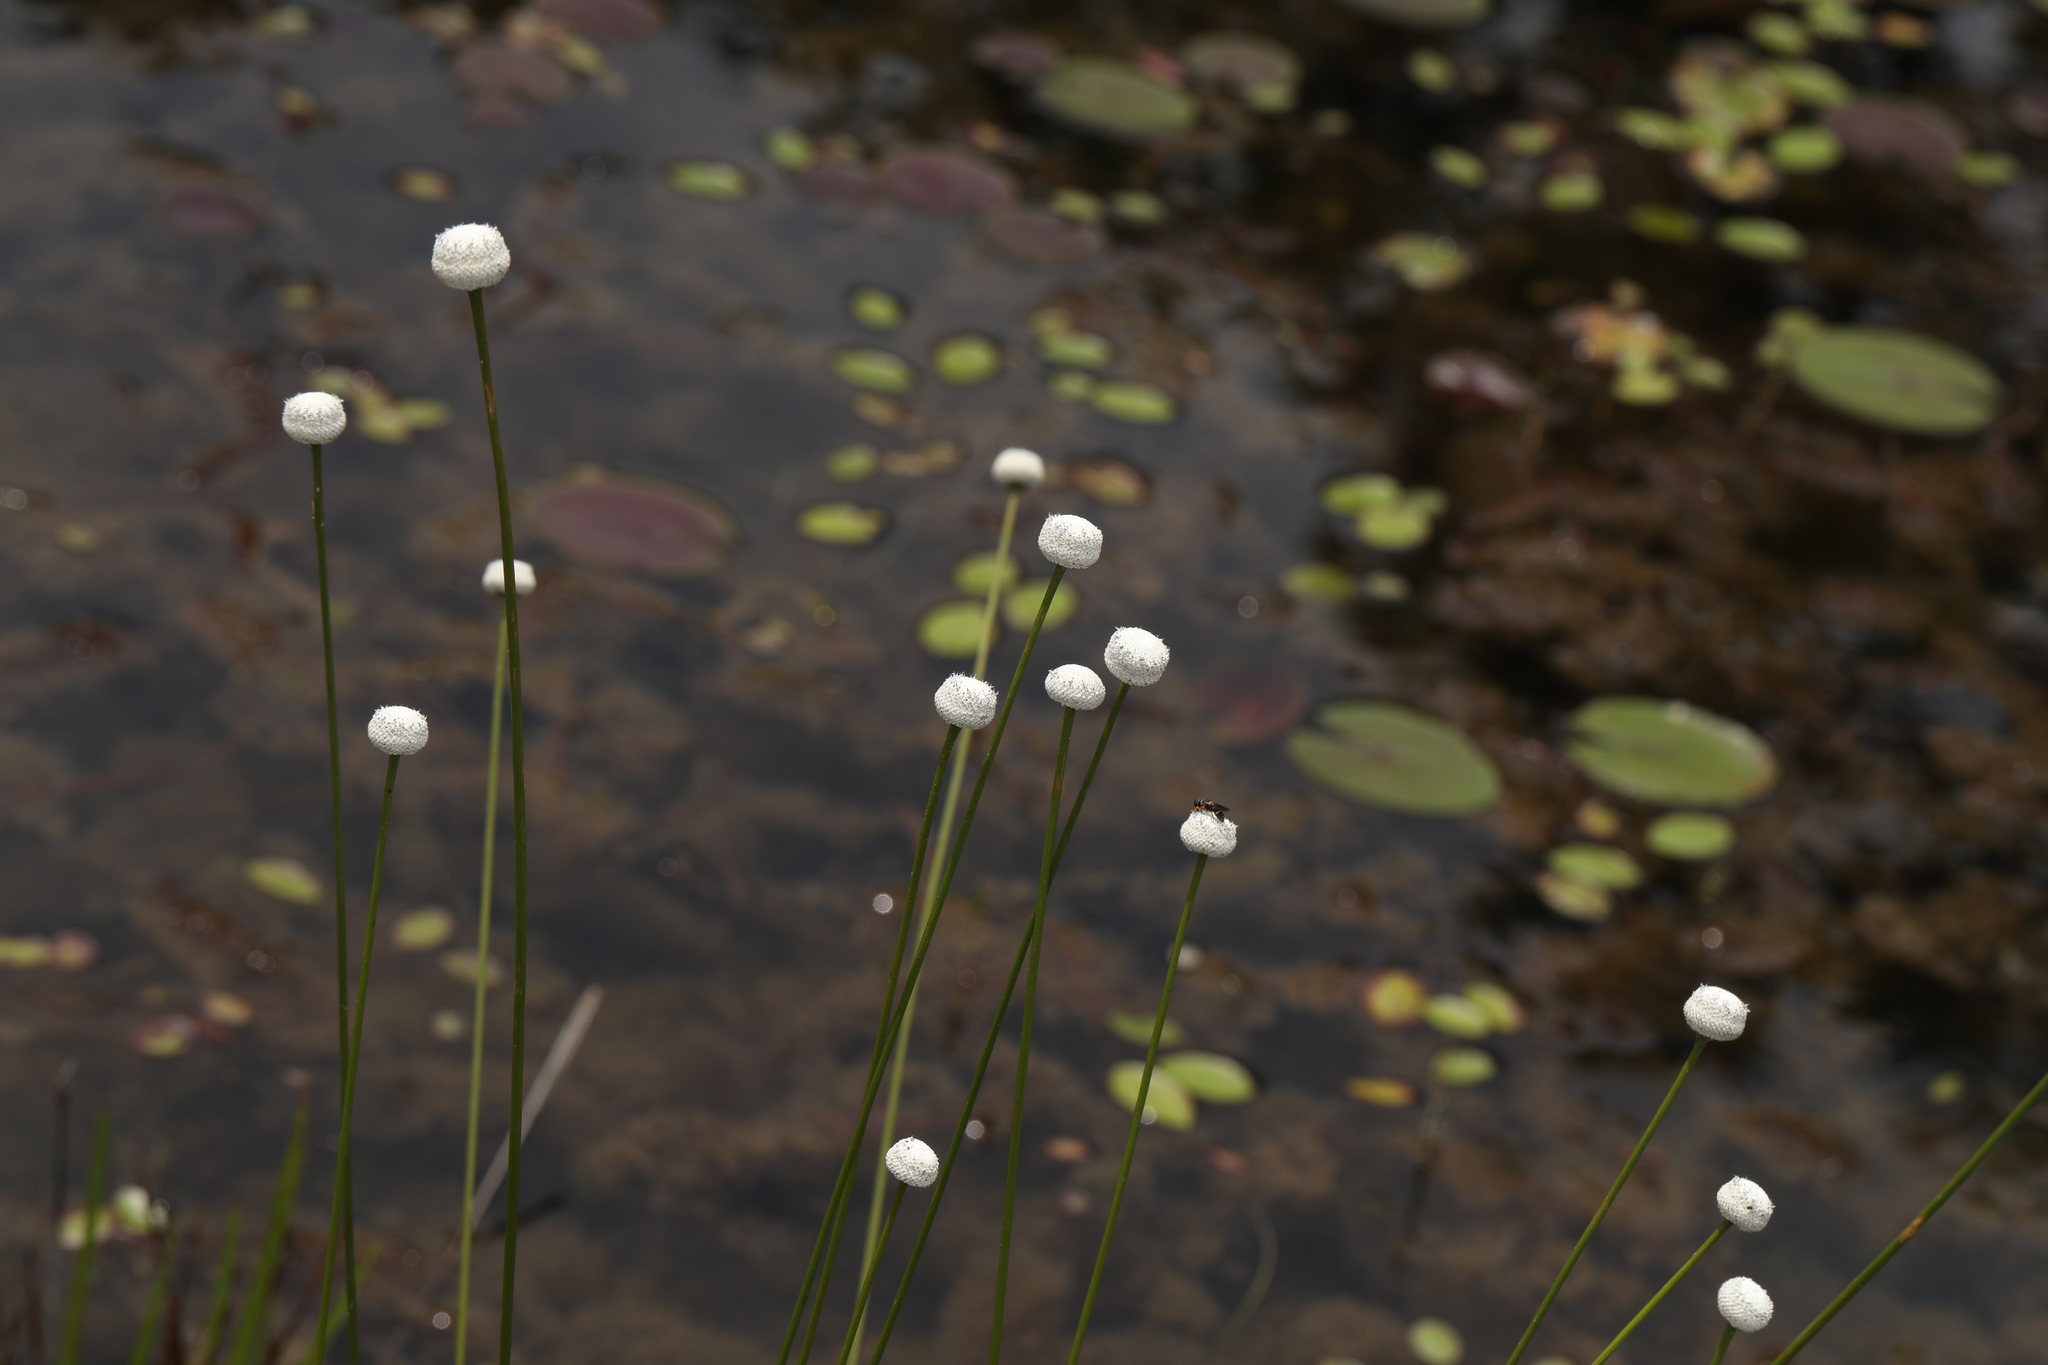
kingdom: Plantae
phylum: Tracheophyta
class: Liliopsida
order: Poales
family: Eriocaulaceae
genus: Eriocaulon
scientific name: Eriocaulon decangulare
